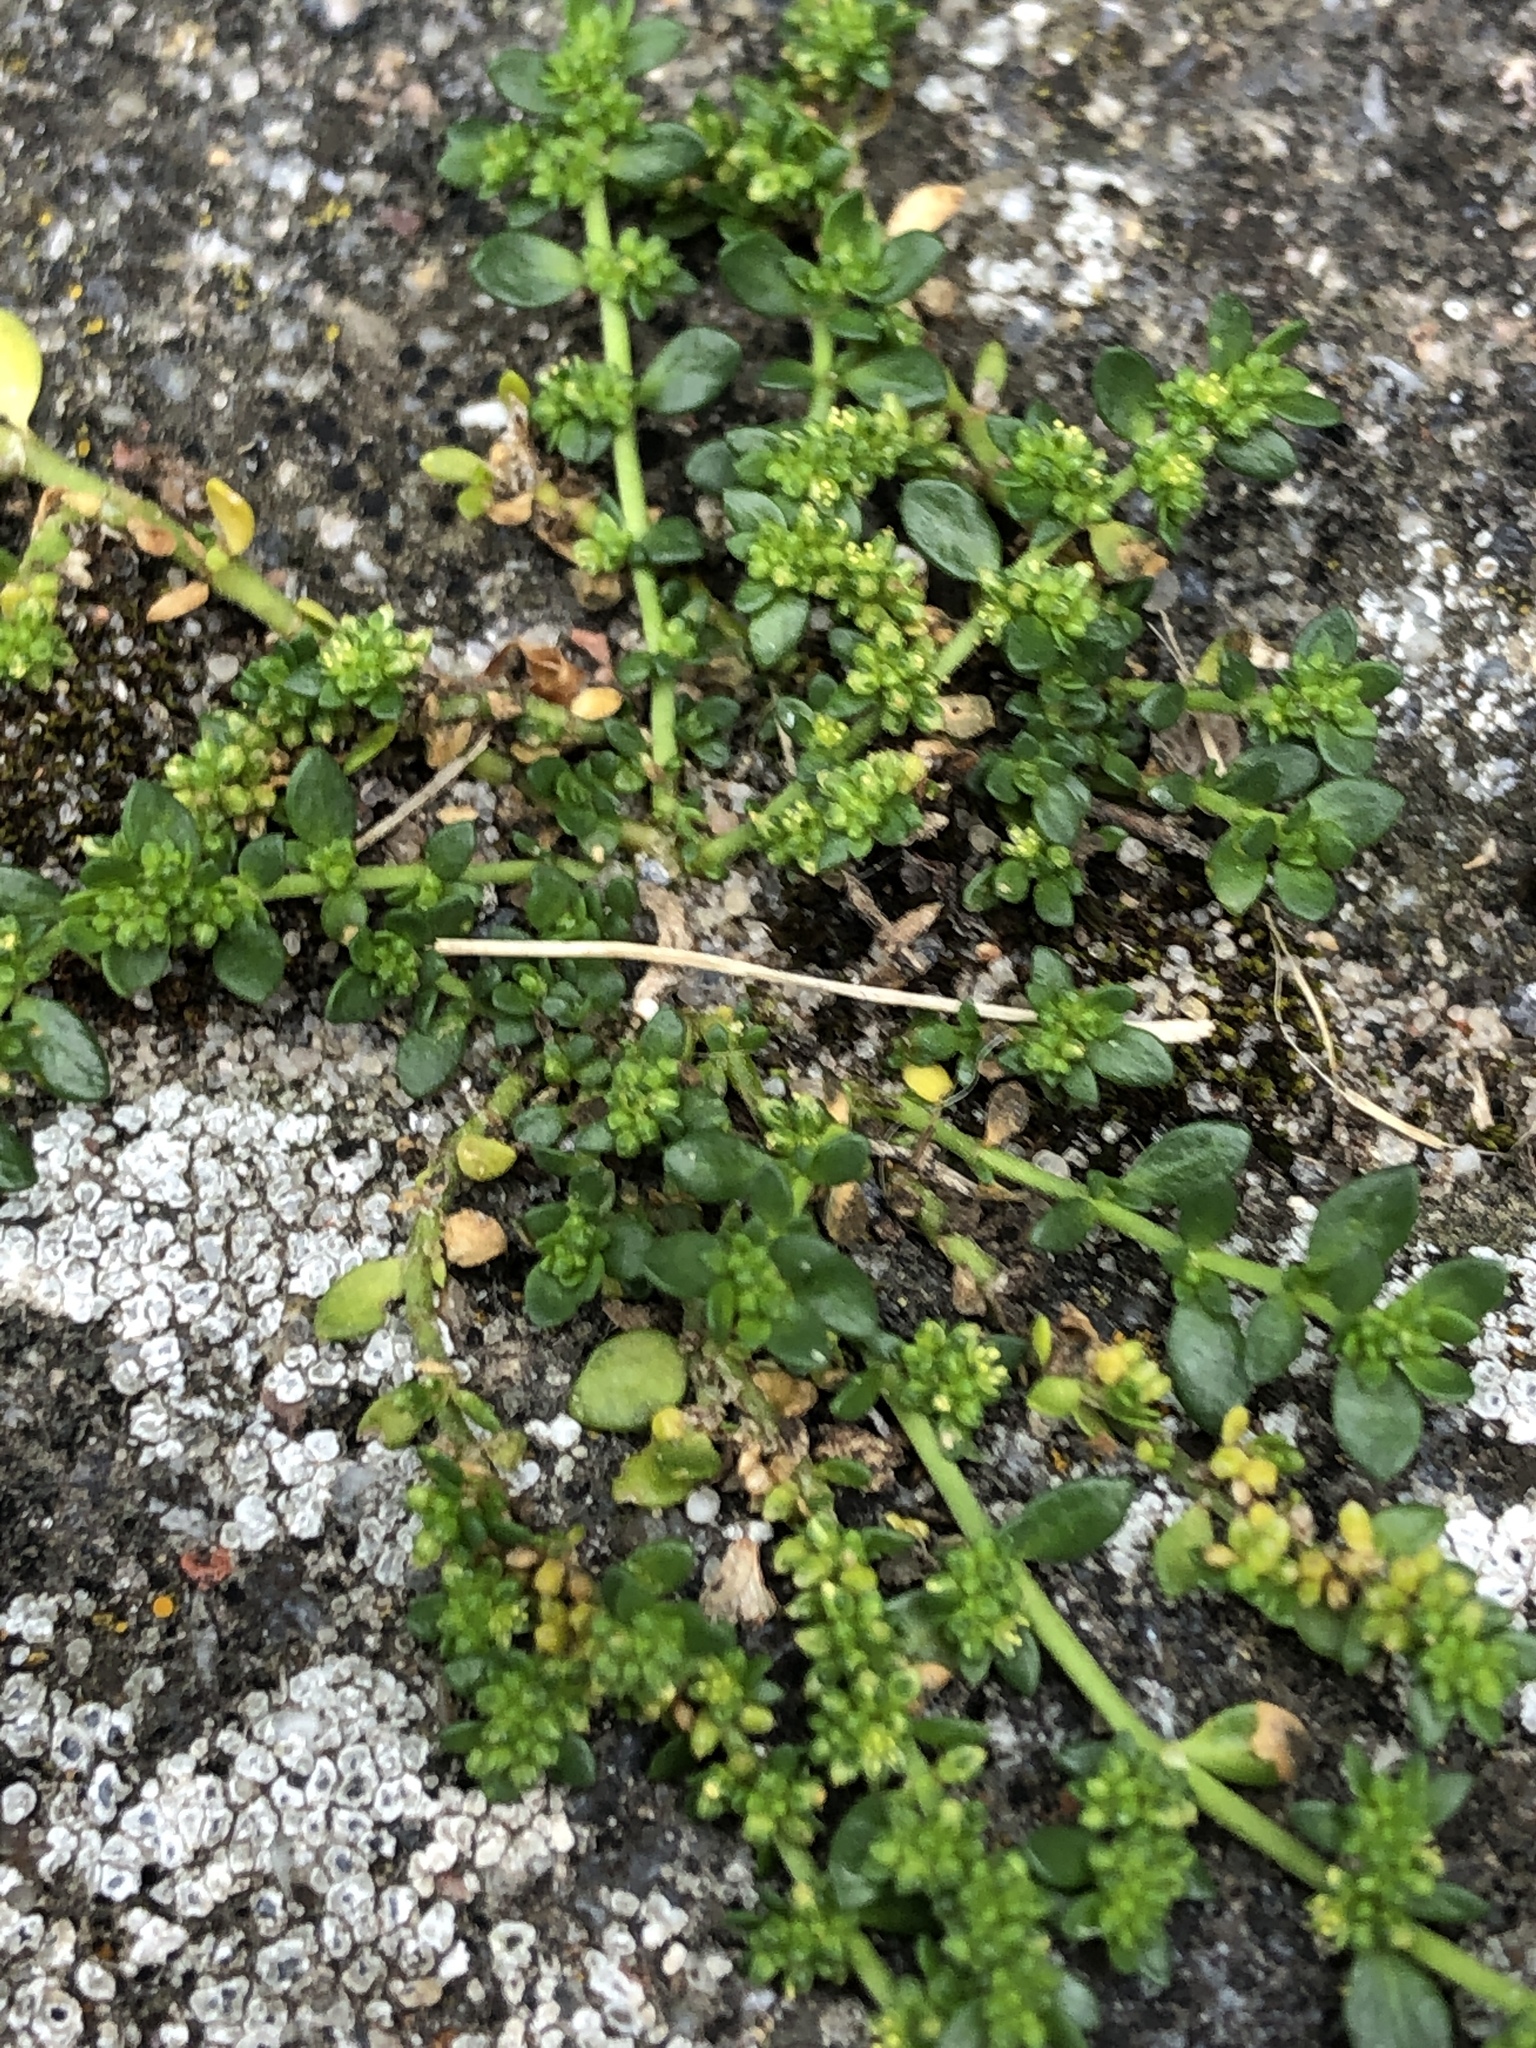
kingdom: Plantae
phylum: Tracheophyta
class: Magnoliopsida
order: Caryophyllales
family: Caryophyllaceae
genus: Herniaria
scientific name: Herniaria glabra
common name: Smooth rupturewort
